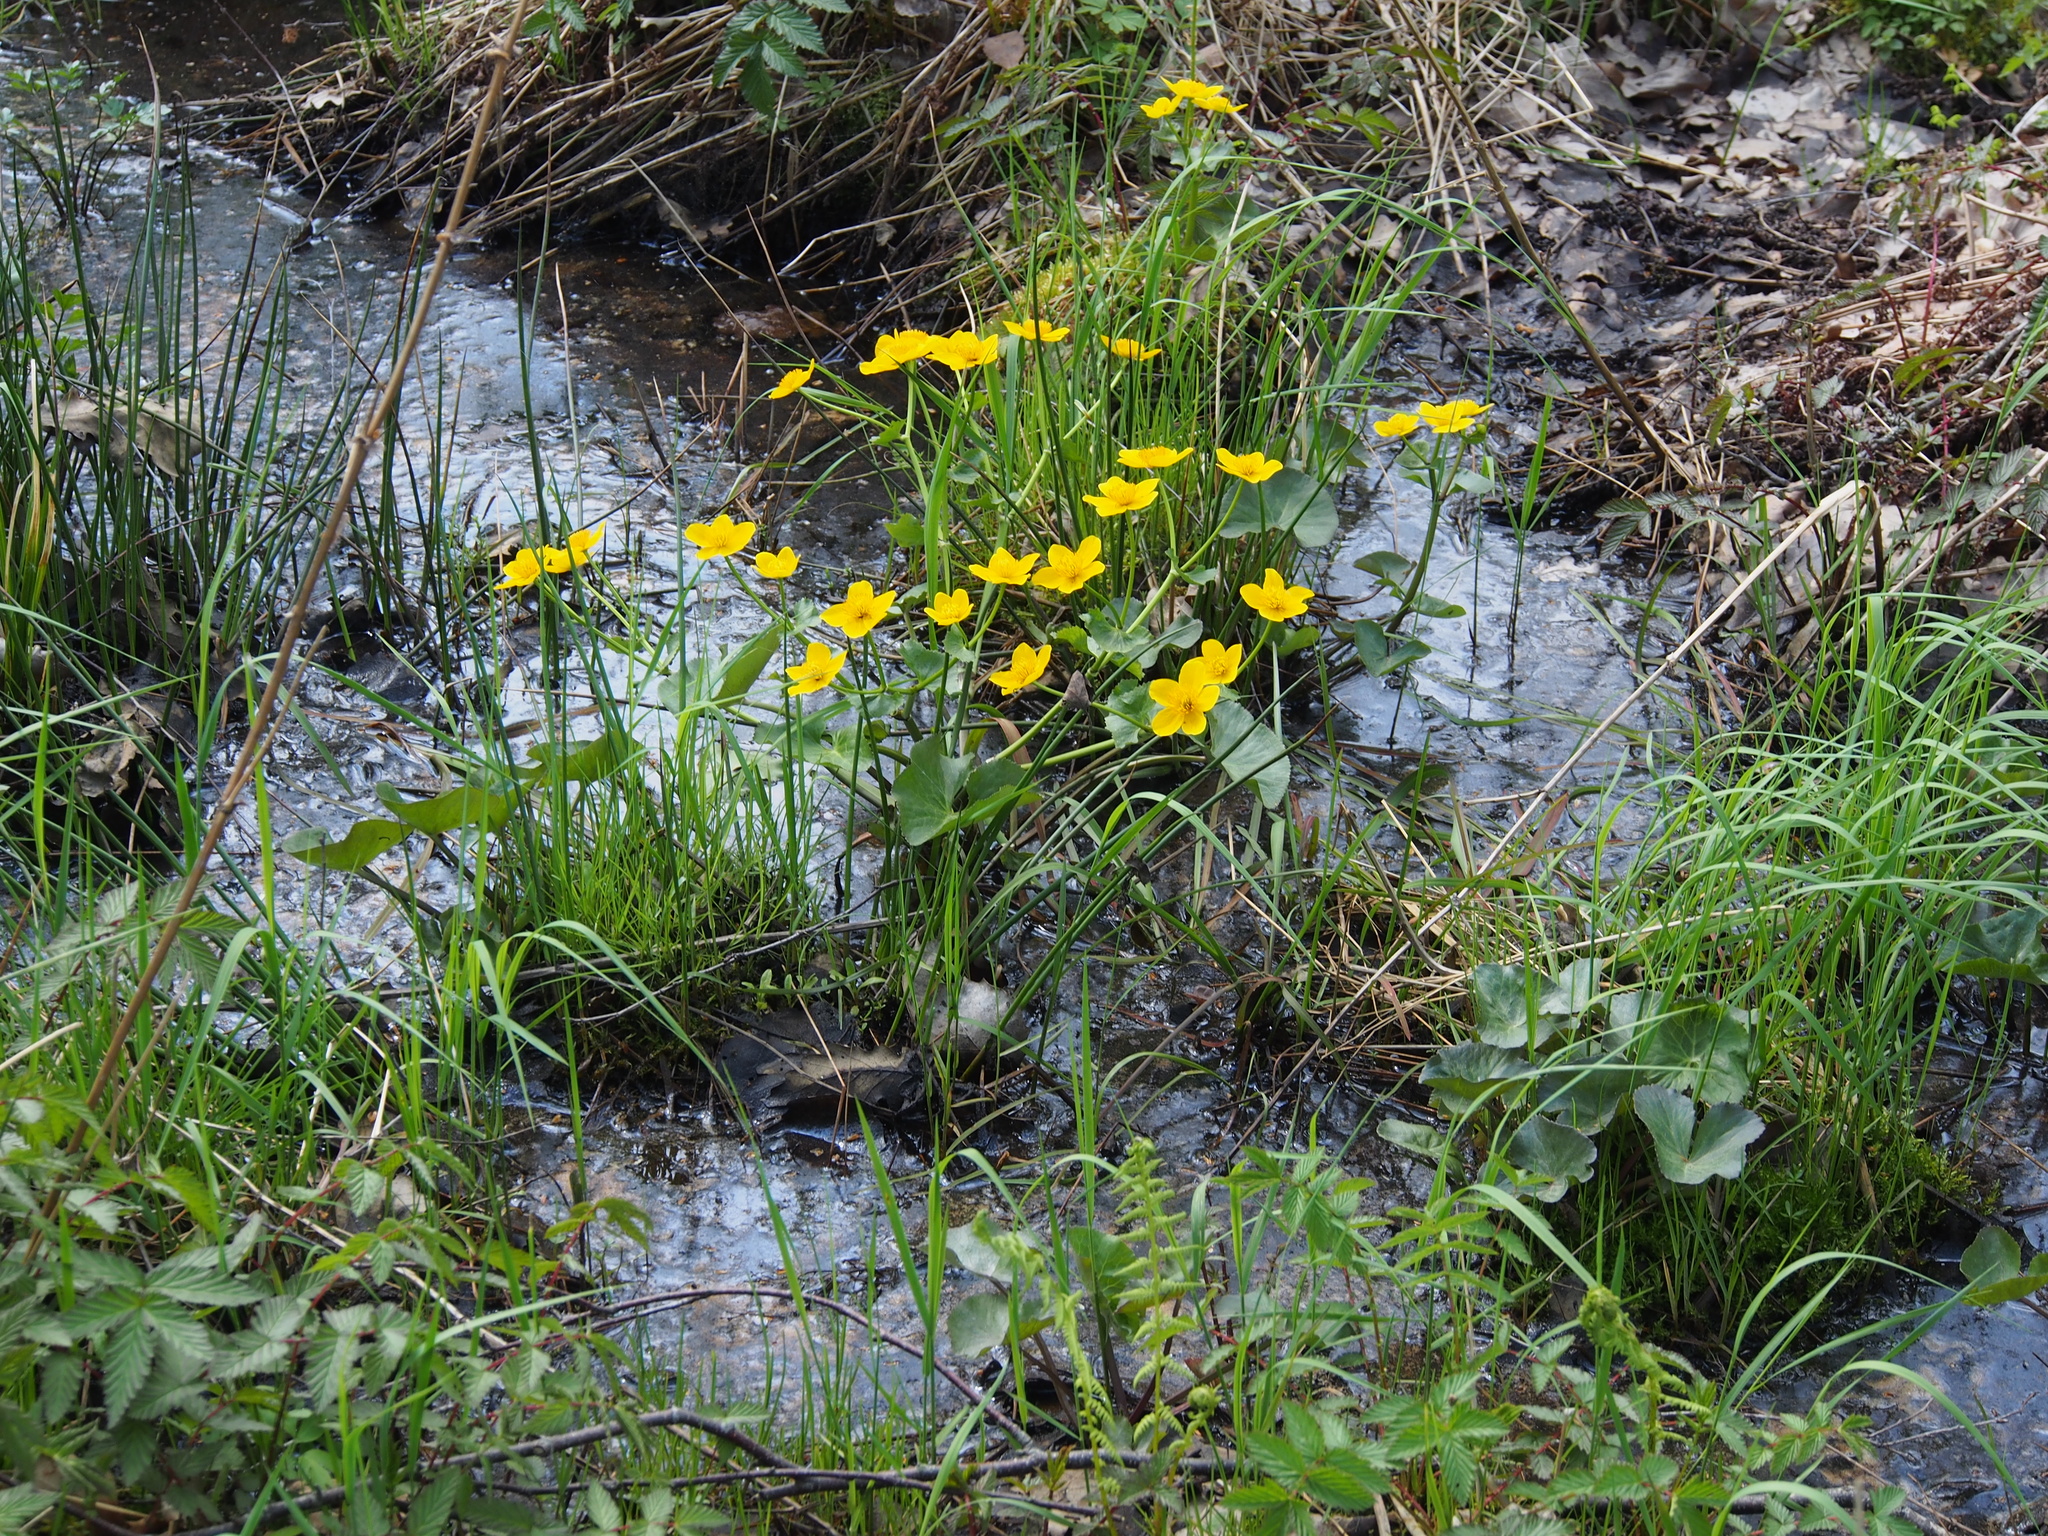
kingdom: Plantae
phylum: Tracheophyta
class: Magnoliopsida
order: Ranunculales
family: Ranunculaceae
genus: Caltha
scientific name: Caltha palustris
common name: Marsh marigold
